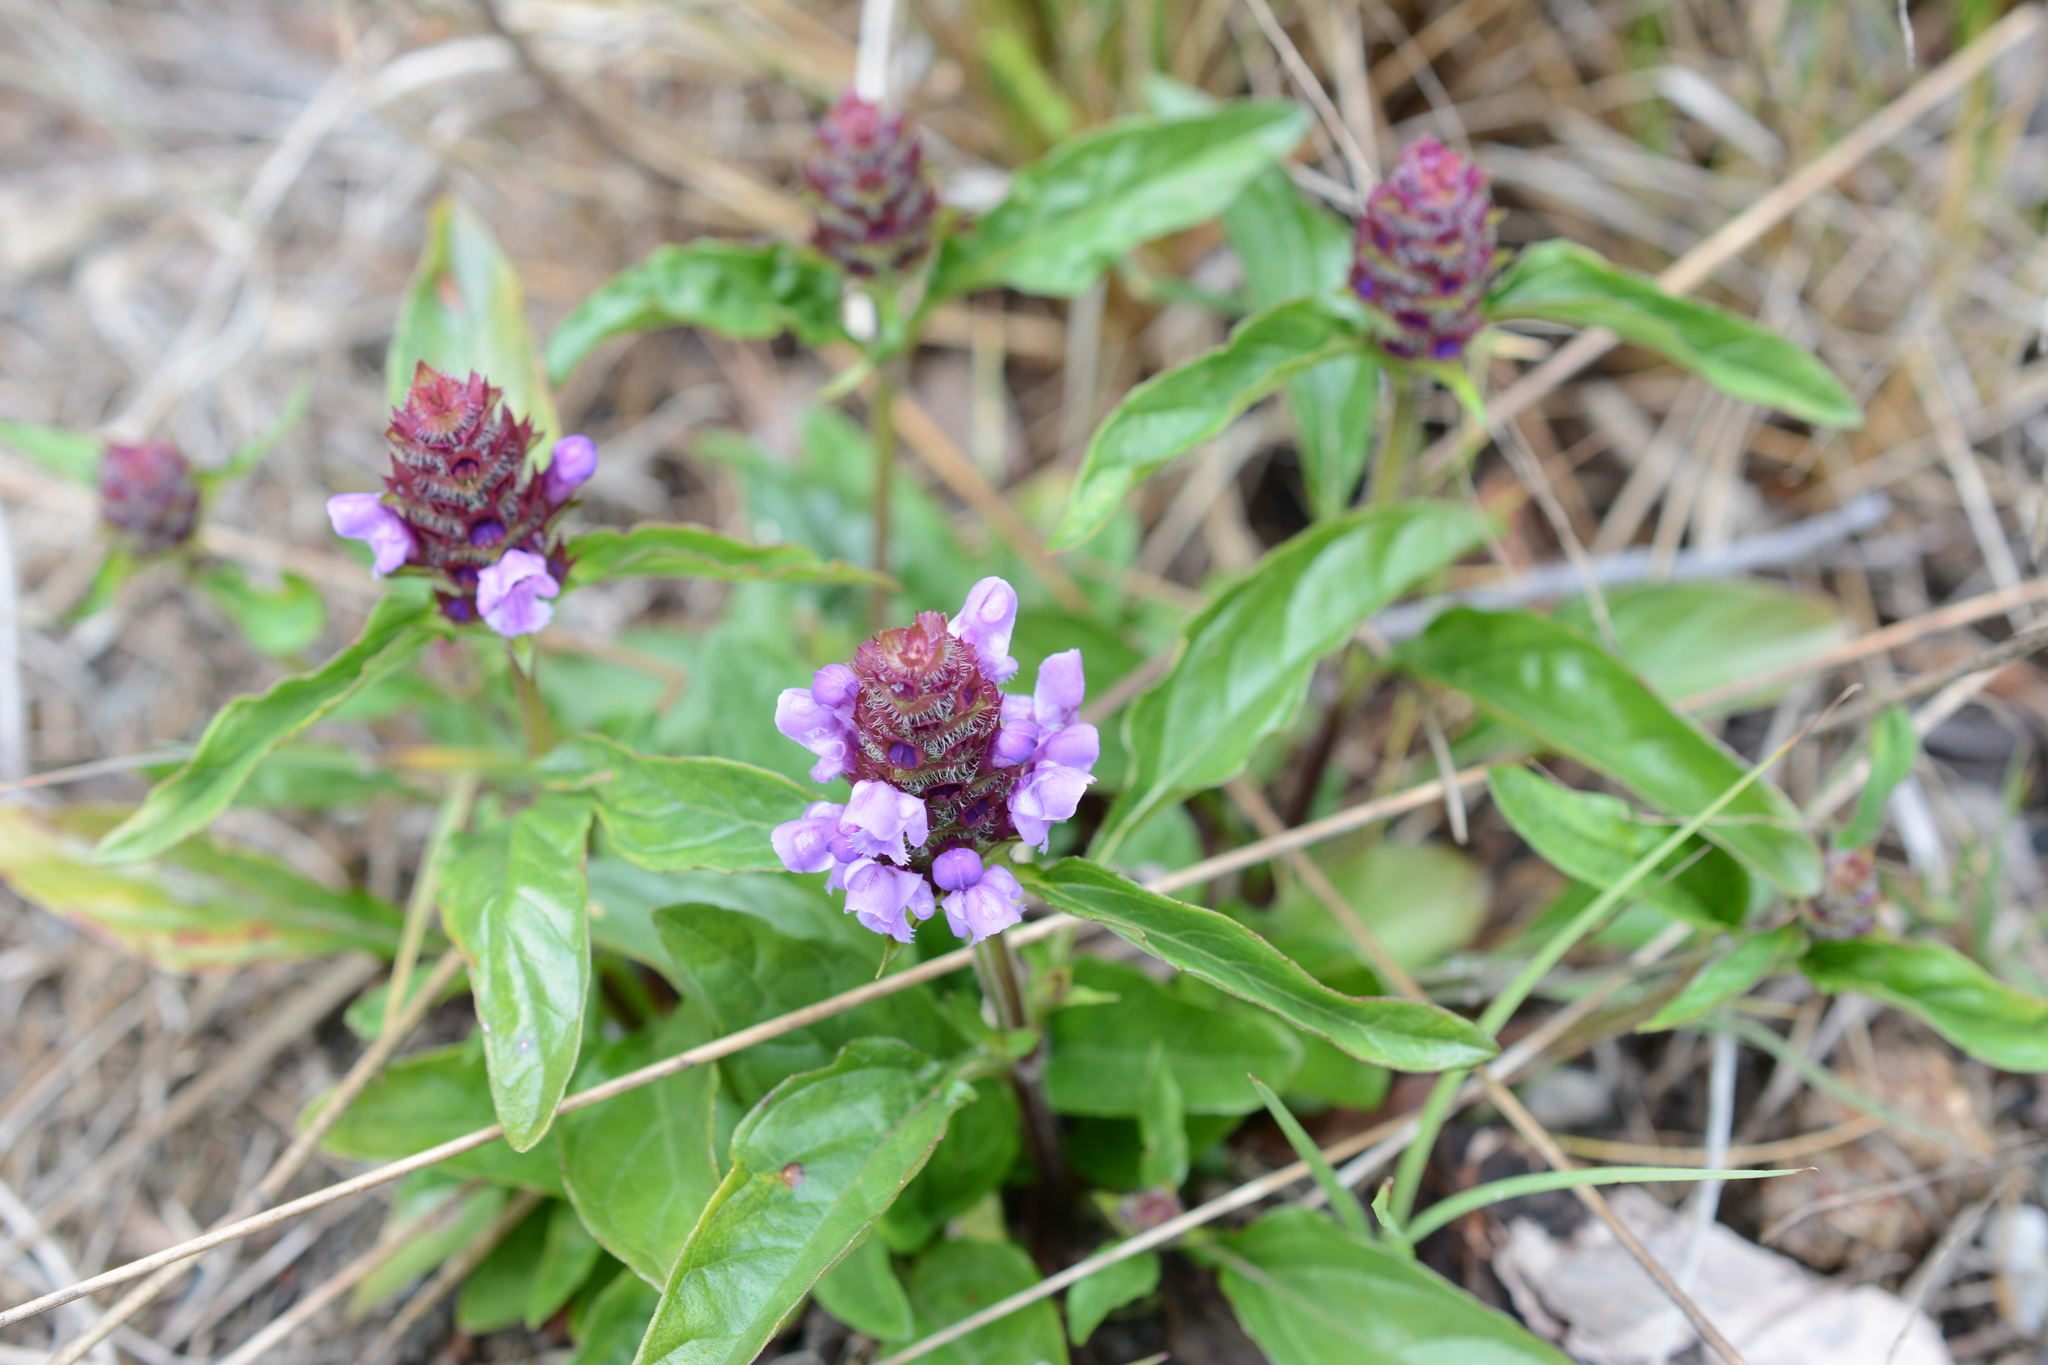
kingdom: Plantae
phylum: Tracheophyta
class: Magnoliopsida
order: Lamiales
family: Lamiaceae
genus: Prunella
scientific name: Prunella vulgaris
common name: Heal-all
